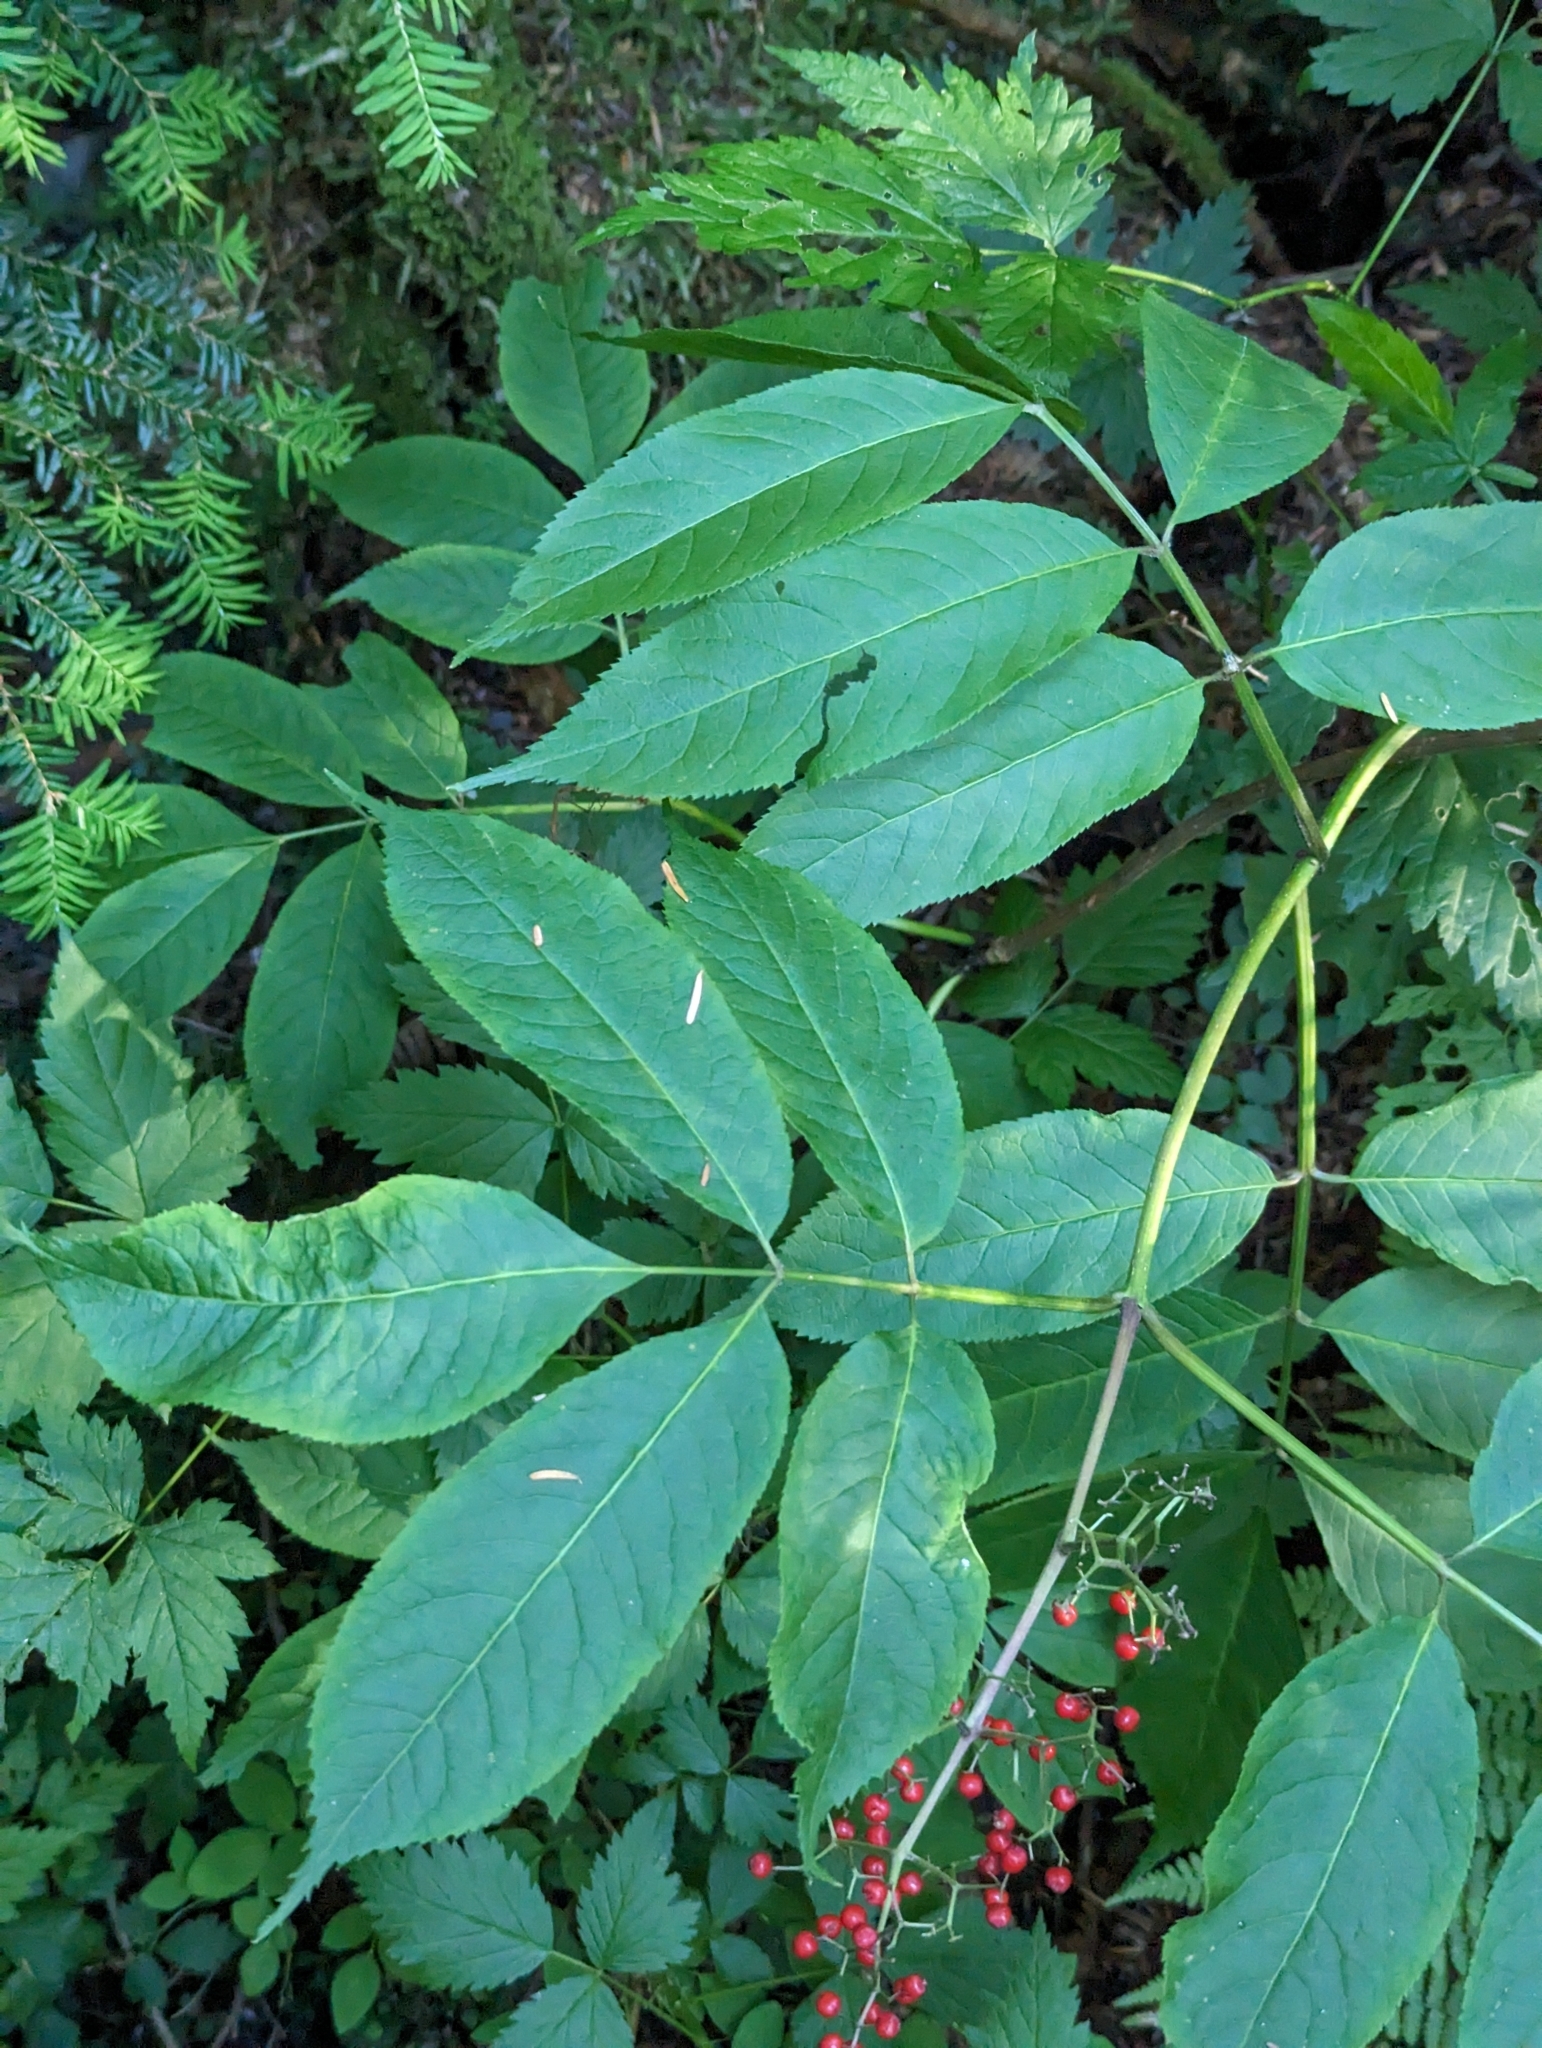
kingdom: Plantae
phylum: Tracheophyta
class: Magnoliopsida
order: Dipsacales
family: Viburnaceae
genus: Sambucus
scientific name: Sambucus racemosa
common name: Red-berried elder
